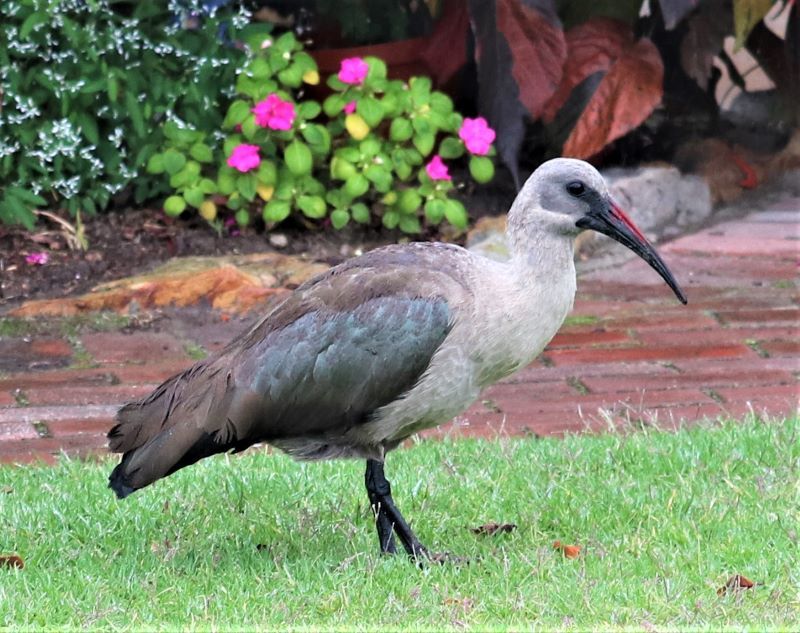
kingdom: Animalia
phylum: Chordata
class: Aves
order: Pelecaniformes
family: Threskiornithidae
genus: Bostrychia
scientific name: Bostrychia hagedash
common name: Hadada ibis
